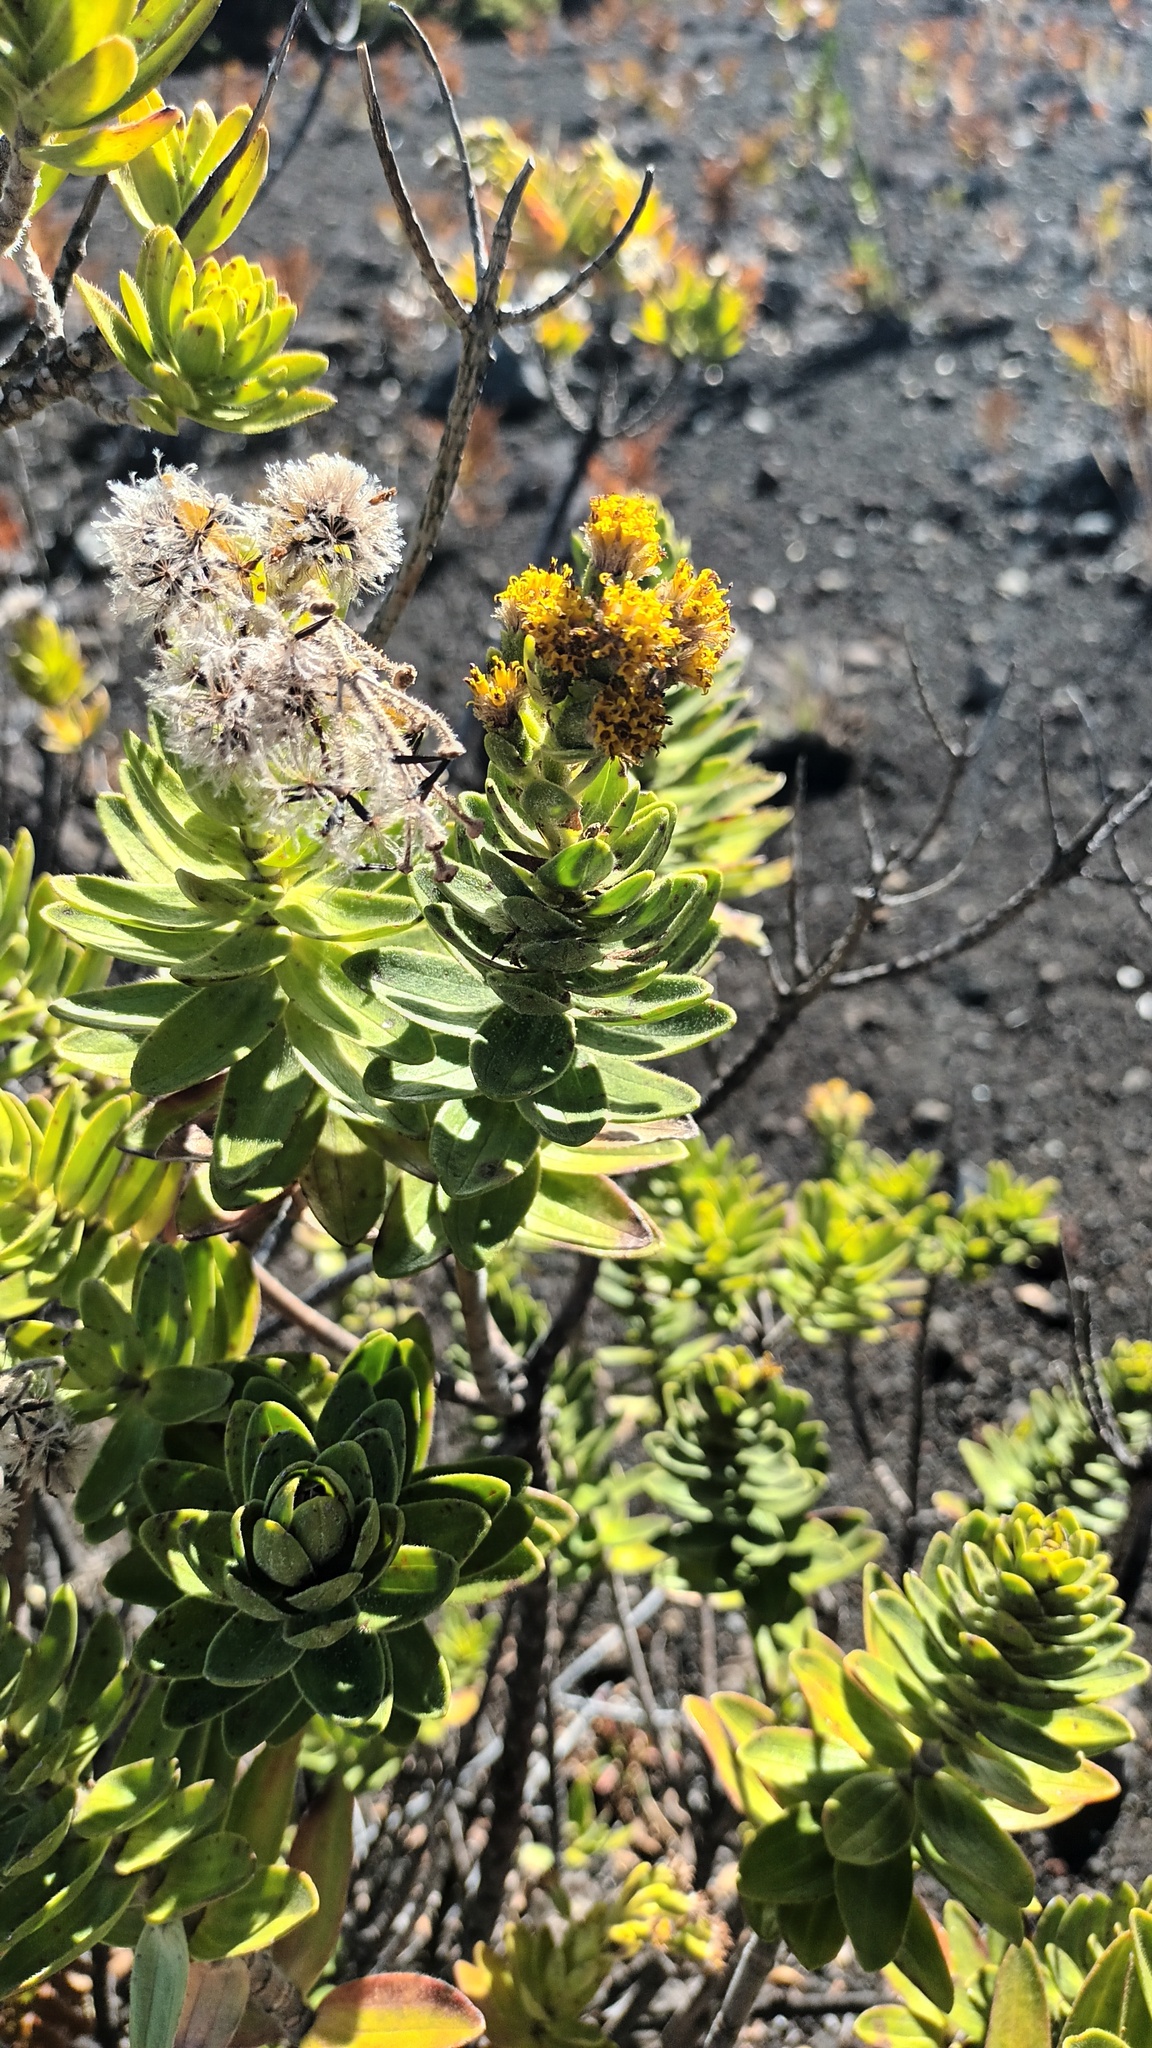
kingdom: Plantae
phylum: Tracheophyta
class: Magnoliopsida
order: Asterales
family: Asteraceae
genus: Dubautia
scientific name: Dubautia menziesii
